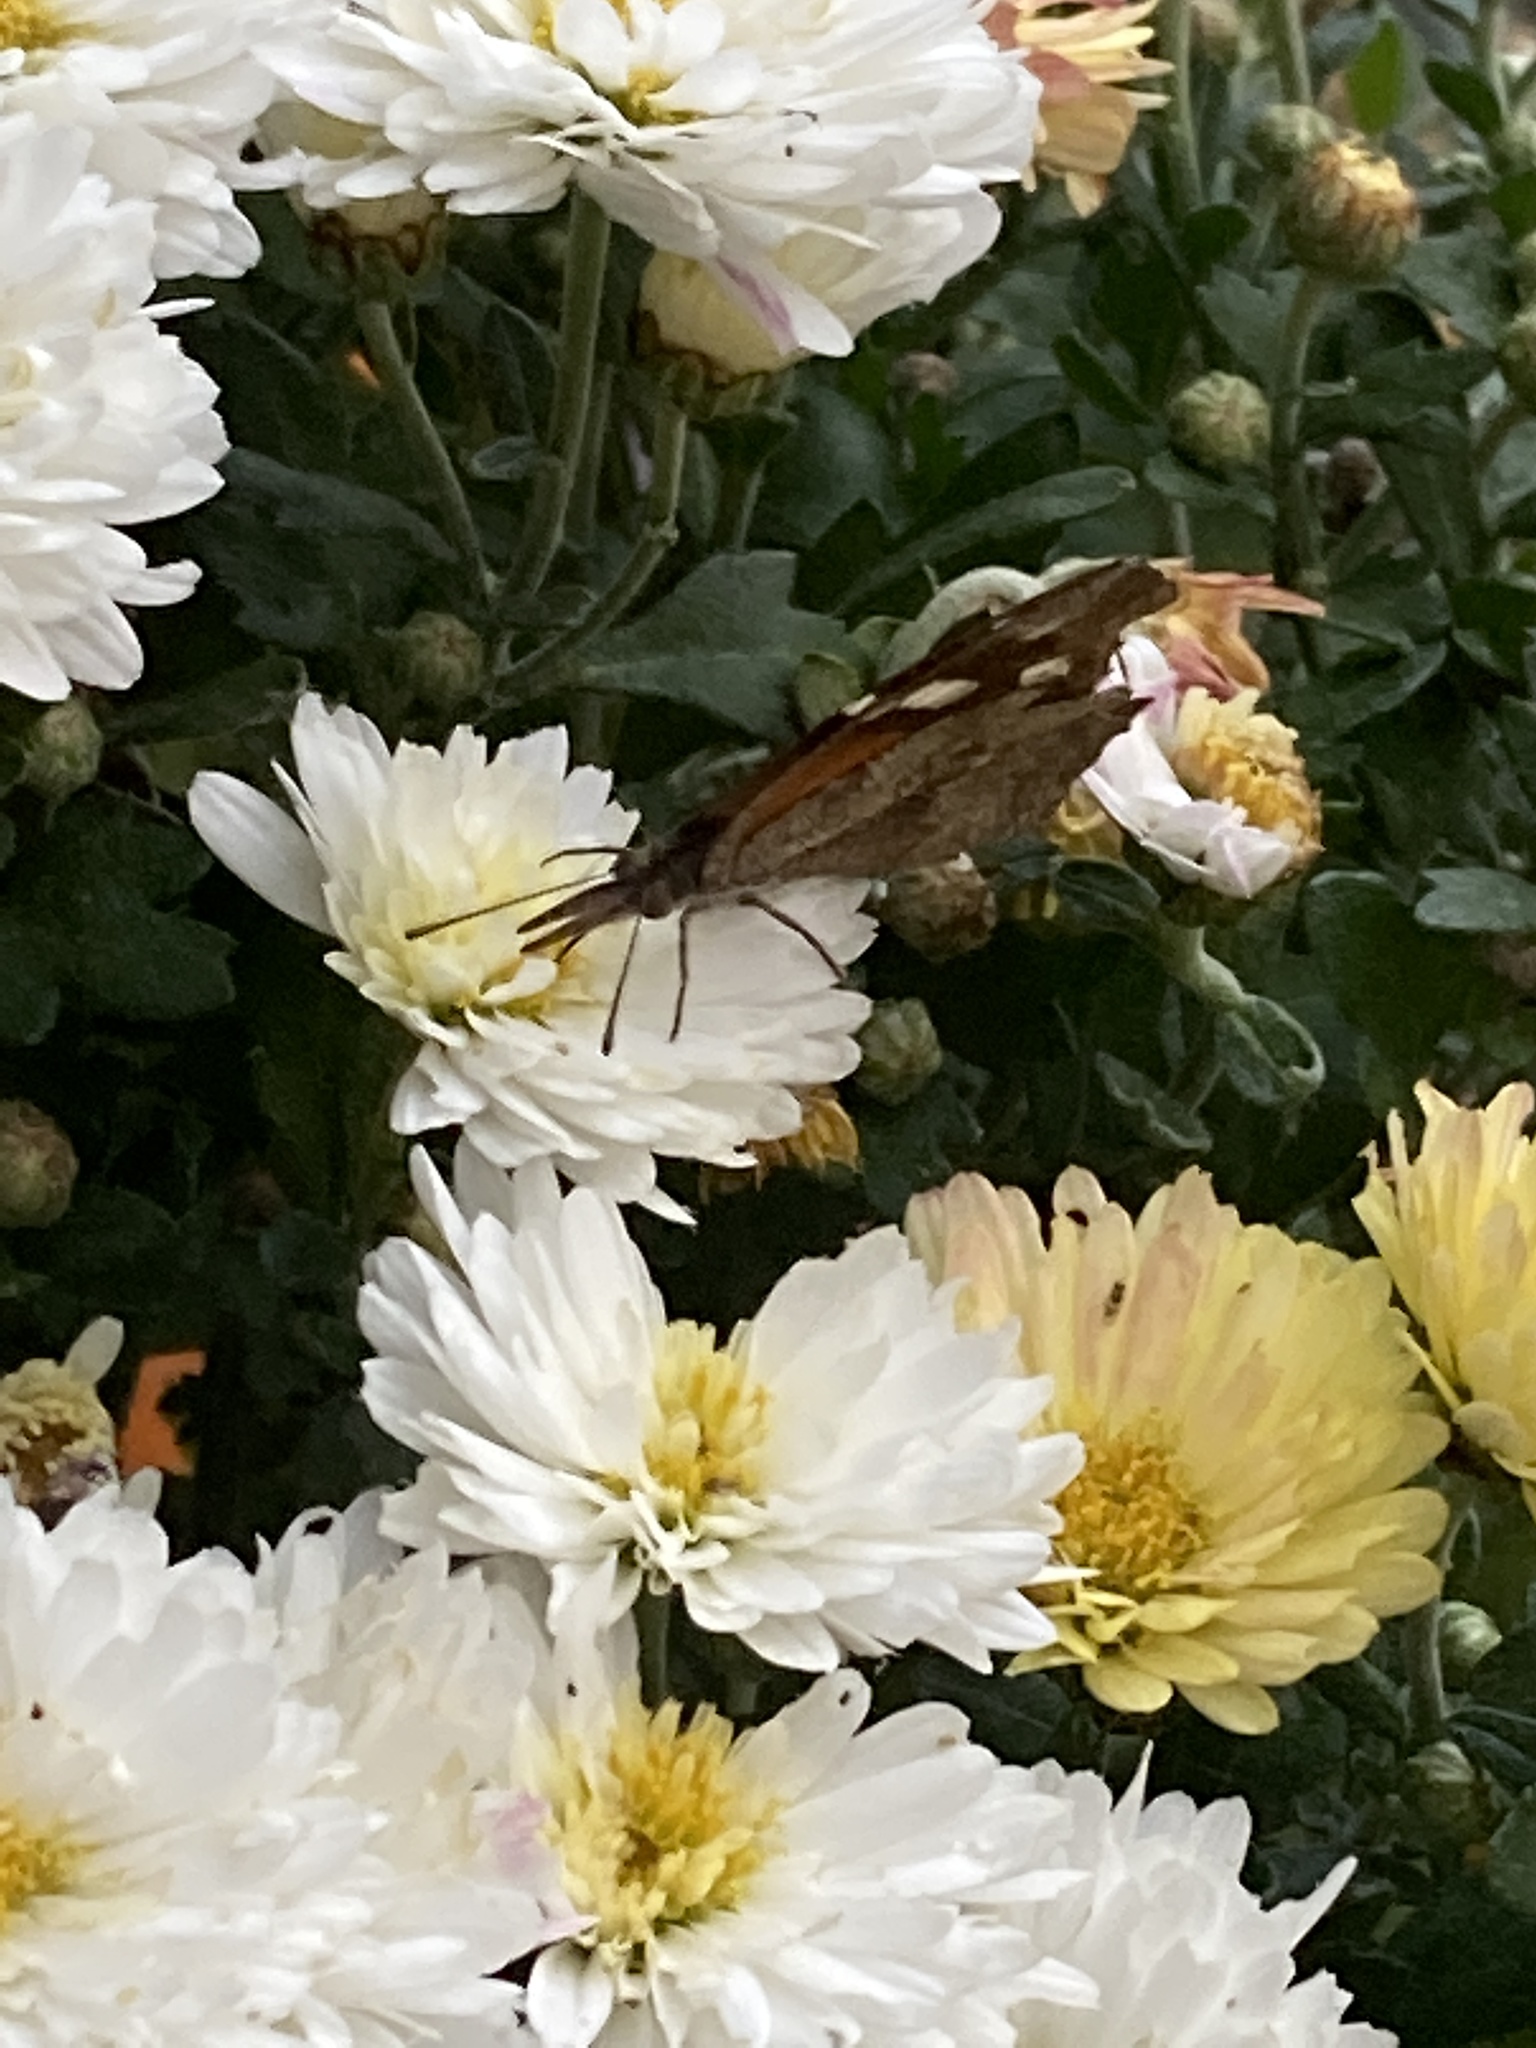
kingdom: Animalia
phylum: Arthropoda
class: Insecta
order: Lepidoptera
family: Nymphalidae
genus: Libytheana
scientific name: Libytheana carinenta
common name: American snout
